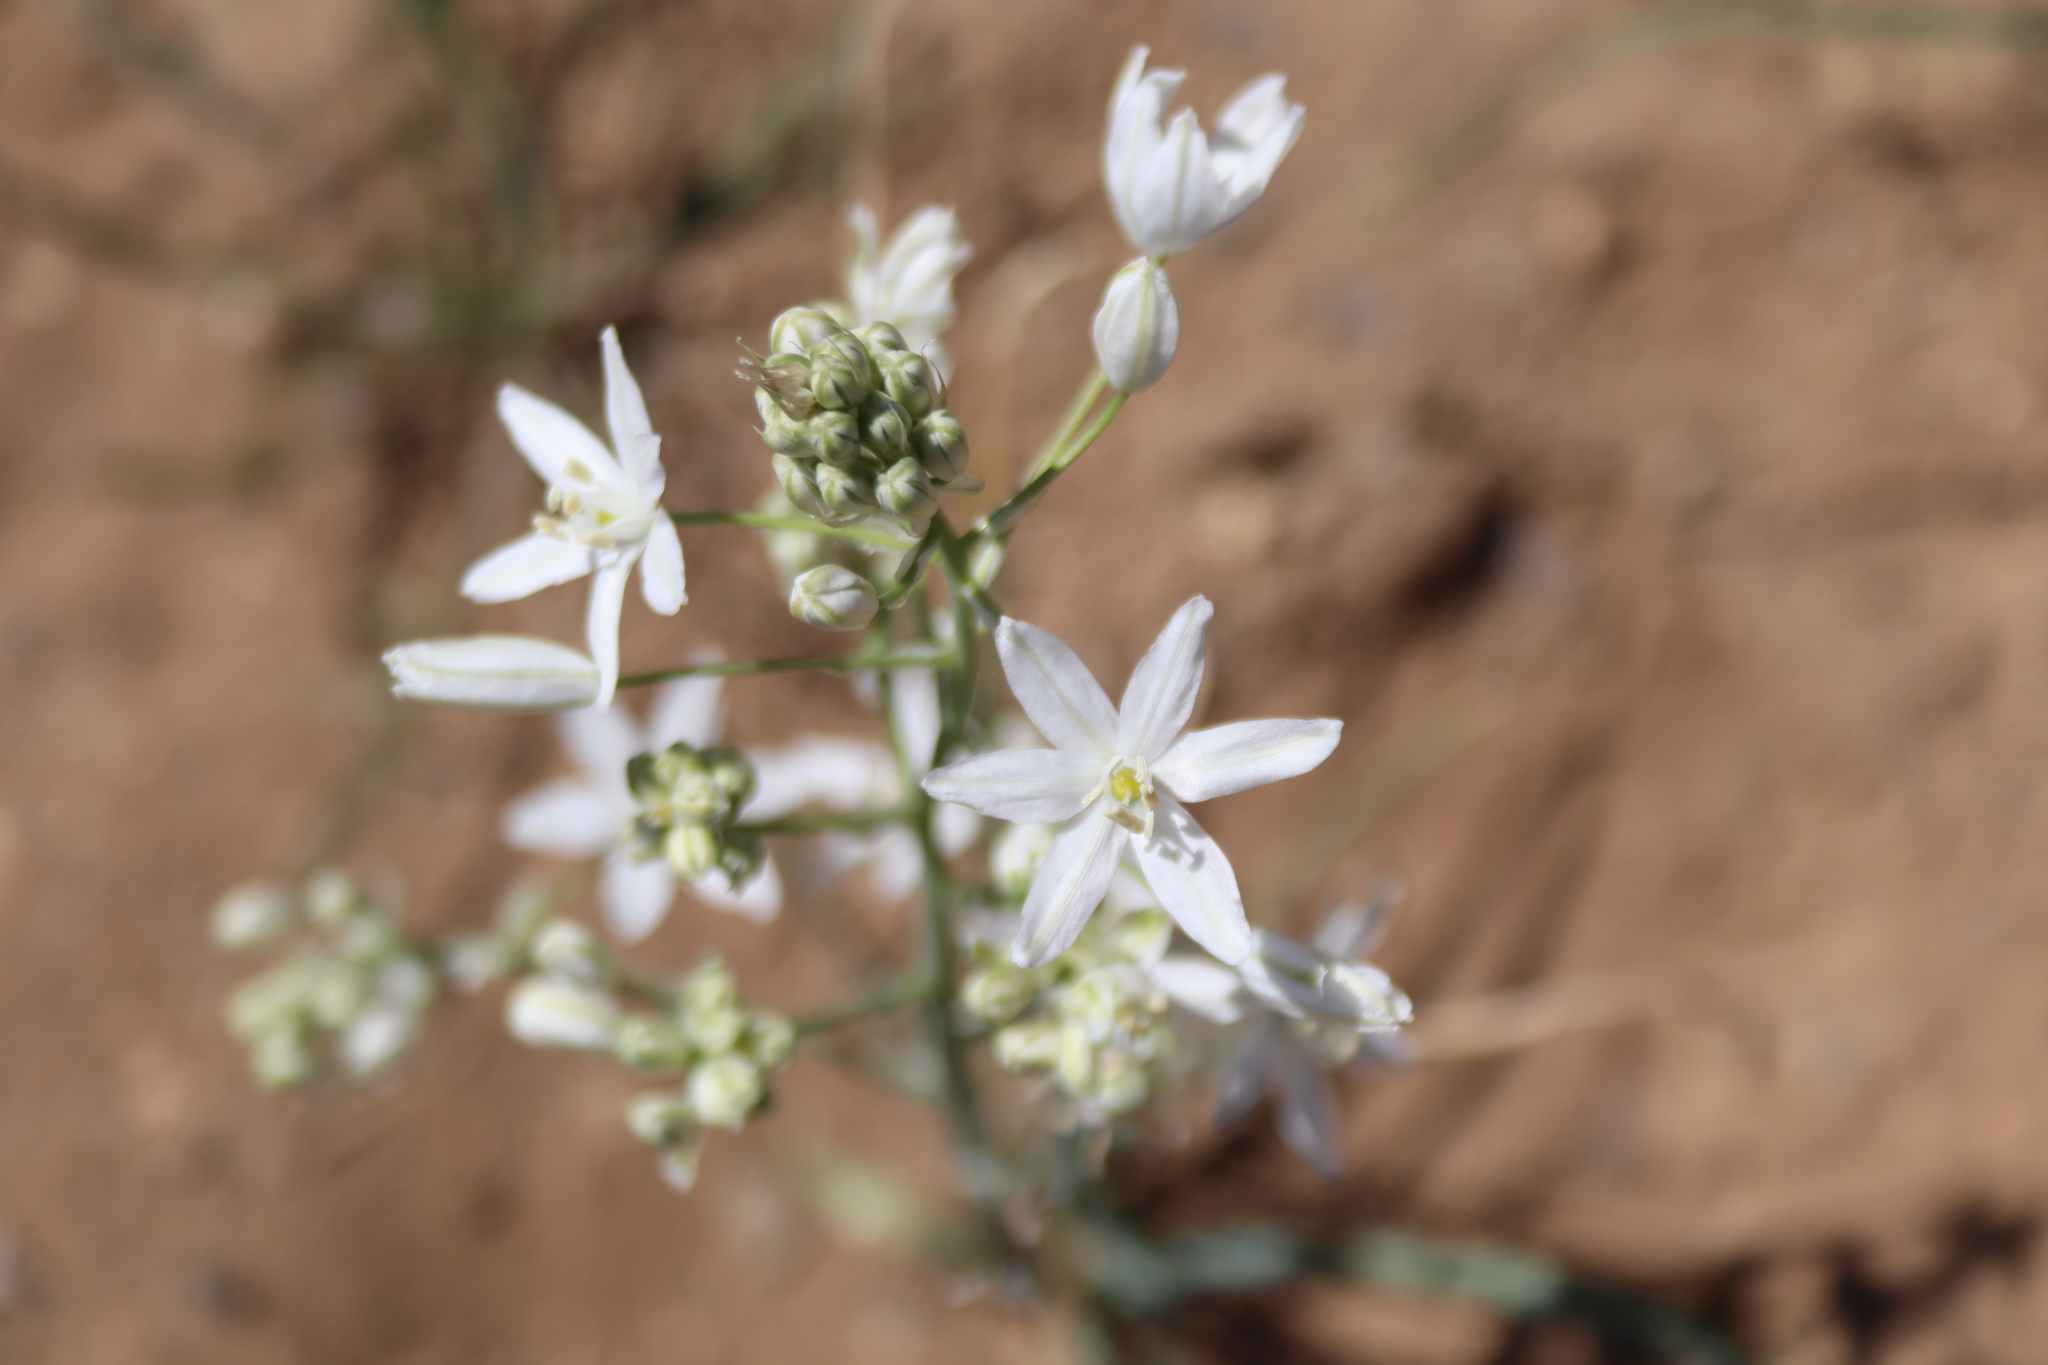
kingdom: Plantae
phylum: Tracheophyta
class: Liliopsida
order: Asparagales
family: Asparagaceae
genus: Ornithogalum
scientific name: Ornithogalum narbonense
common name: Bath-asparagus
